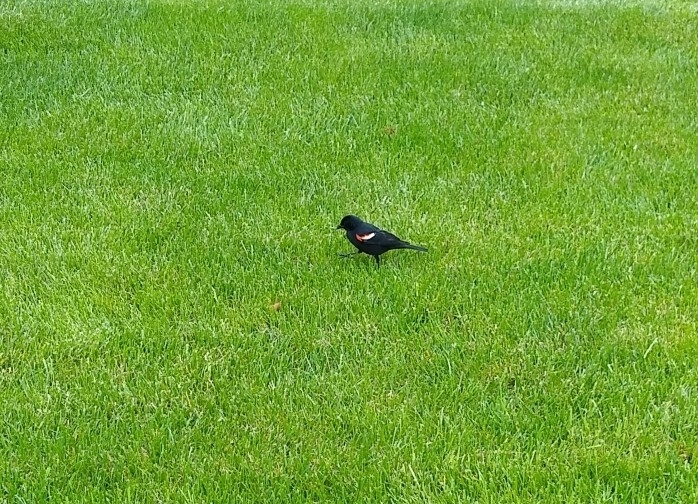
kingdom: Animalia
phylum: Chordata
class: Aves
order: Passeriformes
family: Icteridae
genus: Agelaius
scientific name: Agelaius phoeniceus
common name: Red-winged blackbird
